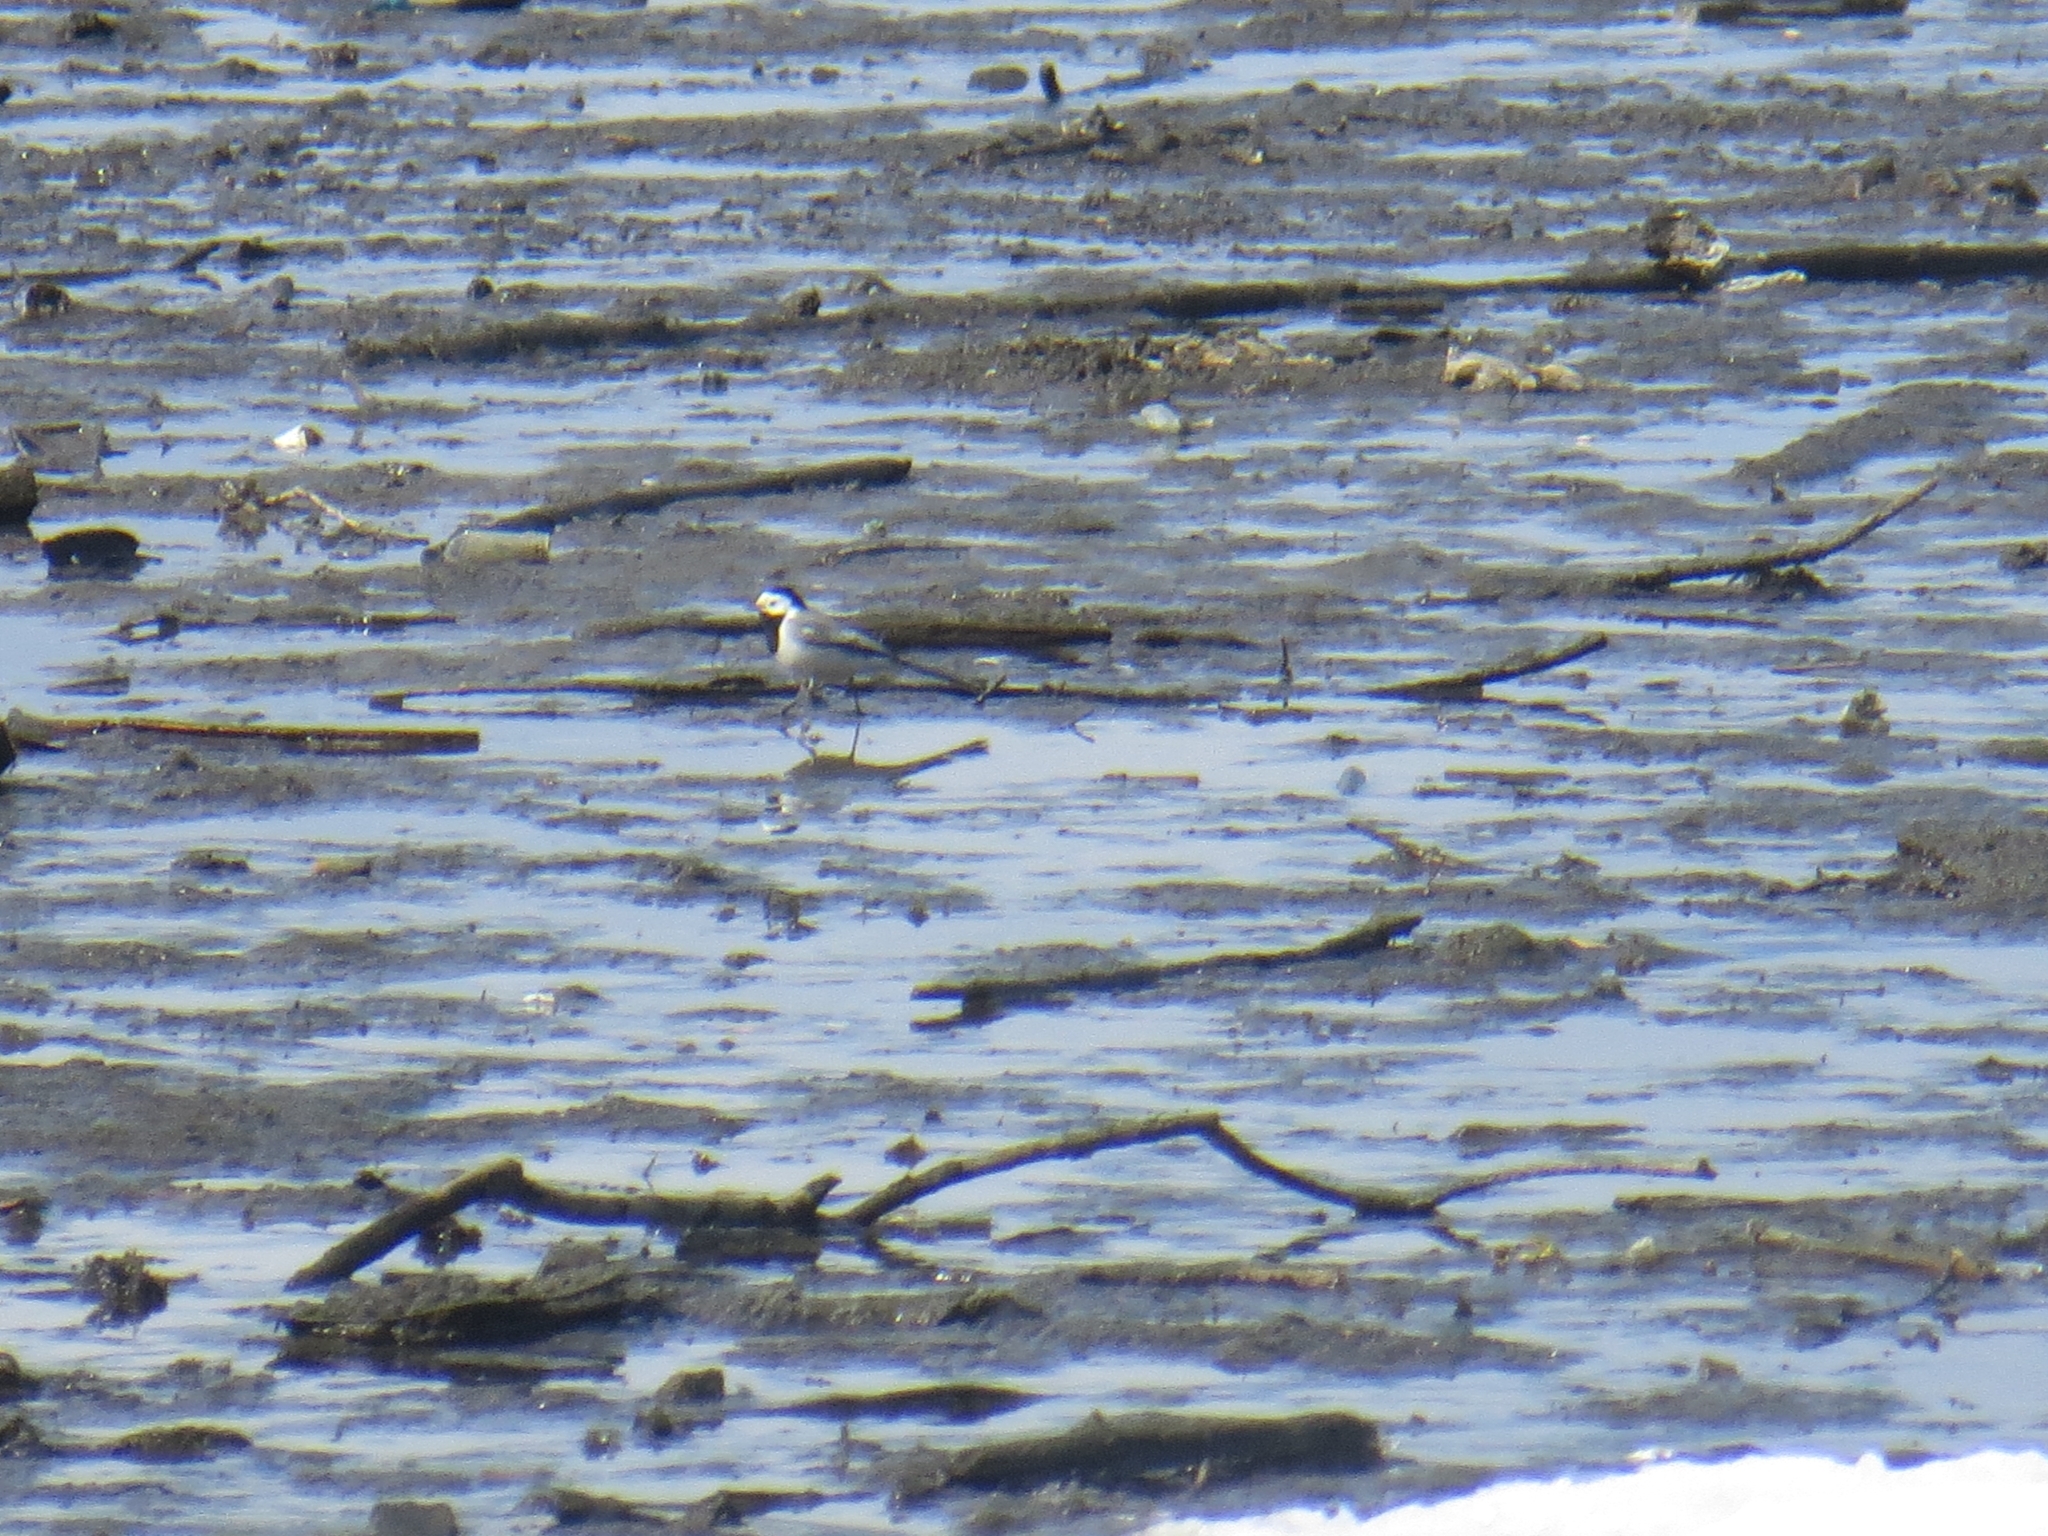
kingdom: Animalia
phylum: Chordata
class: Aves
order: Passeriformes
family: Motacillidae
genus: Motacilla
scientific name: Motacilla alba
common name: White wagtail
